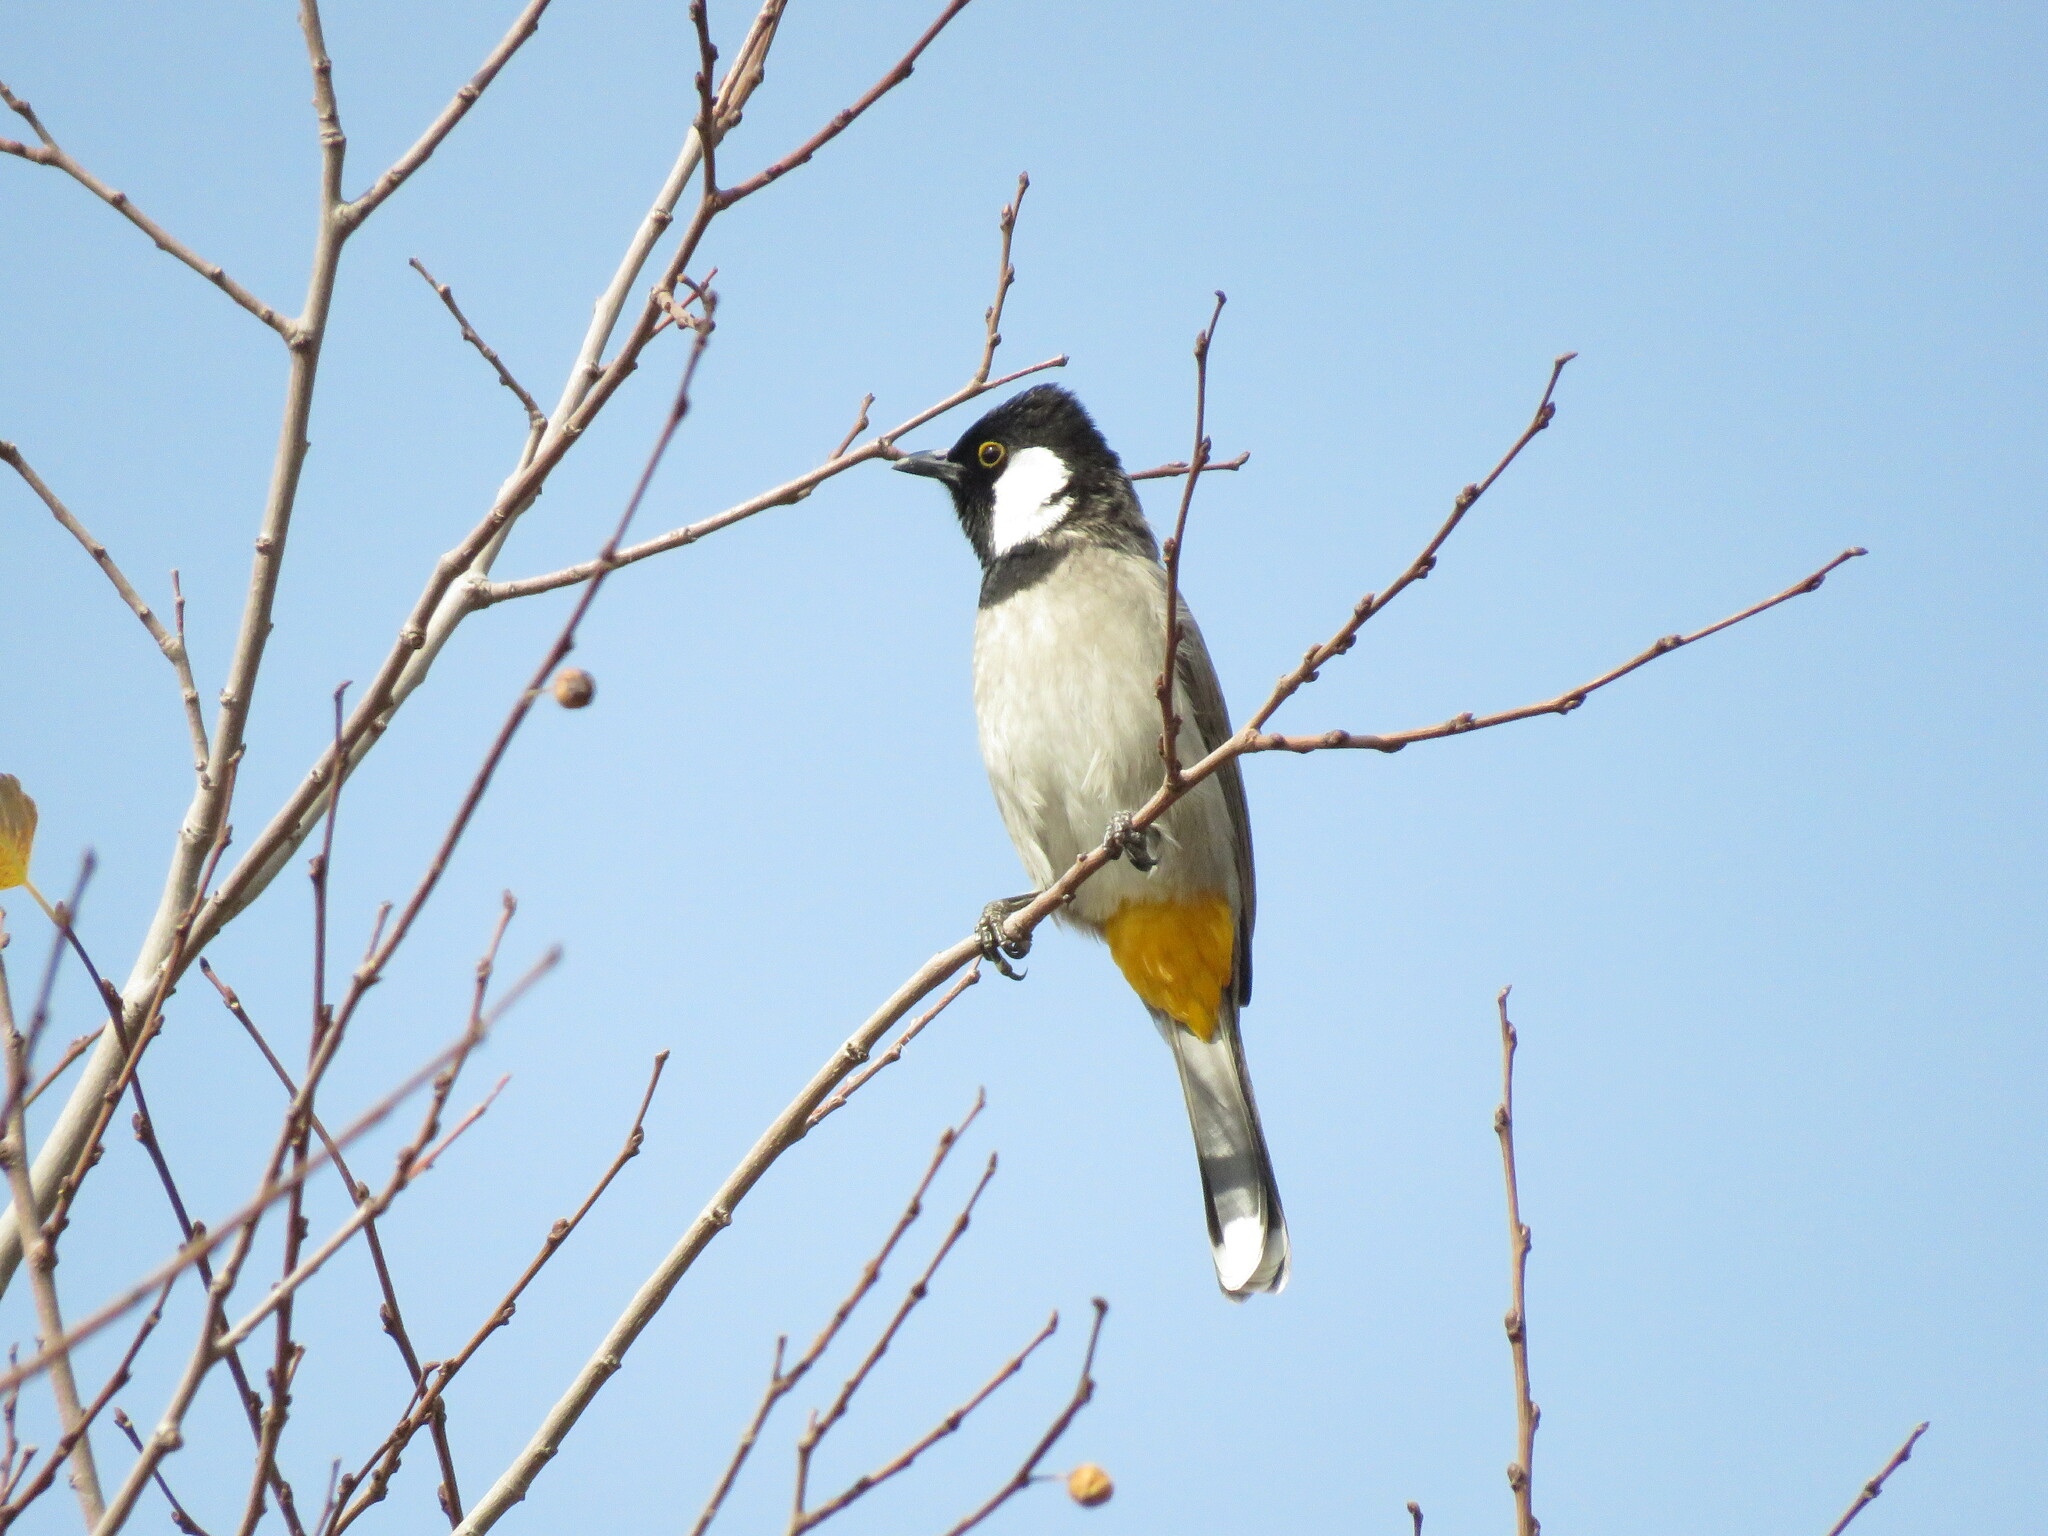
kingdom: Animalia
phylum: Chordata
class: Aves
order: Passeriformes
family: Pycnonotidae
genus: Pycnonotus
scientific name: Pycnonotus leucotis
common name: White-eared bulbul
